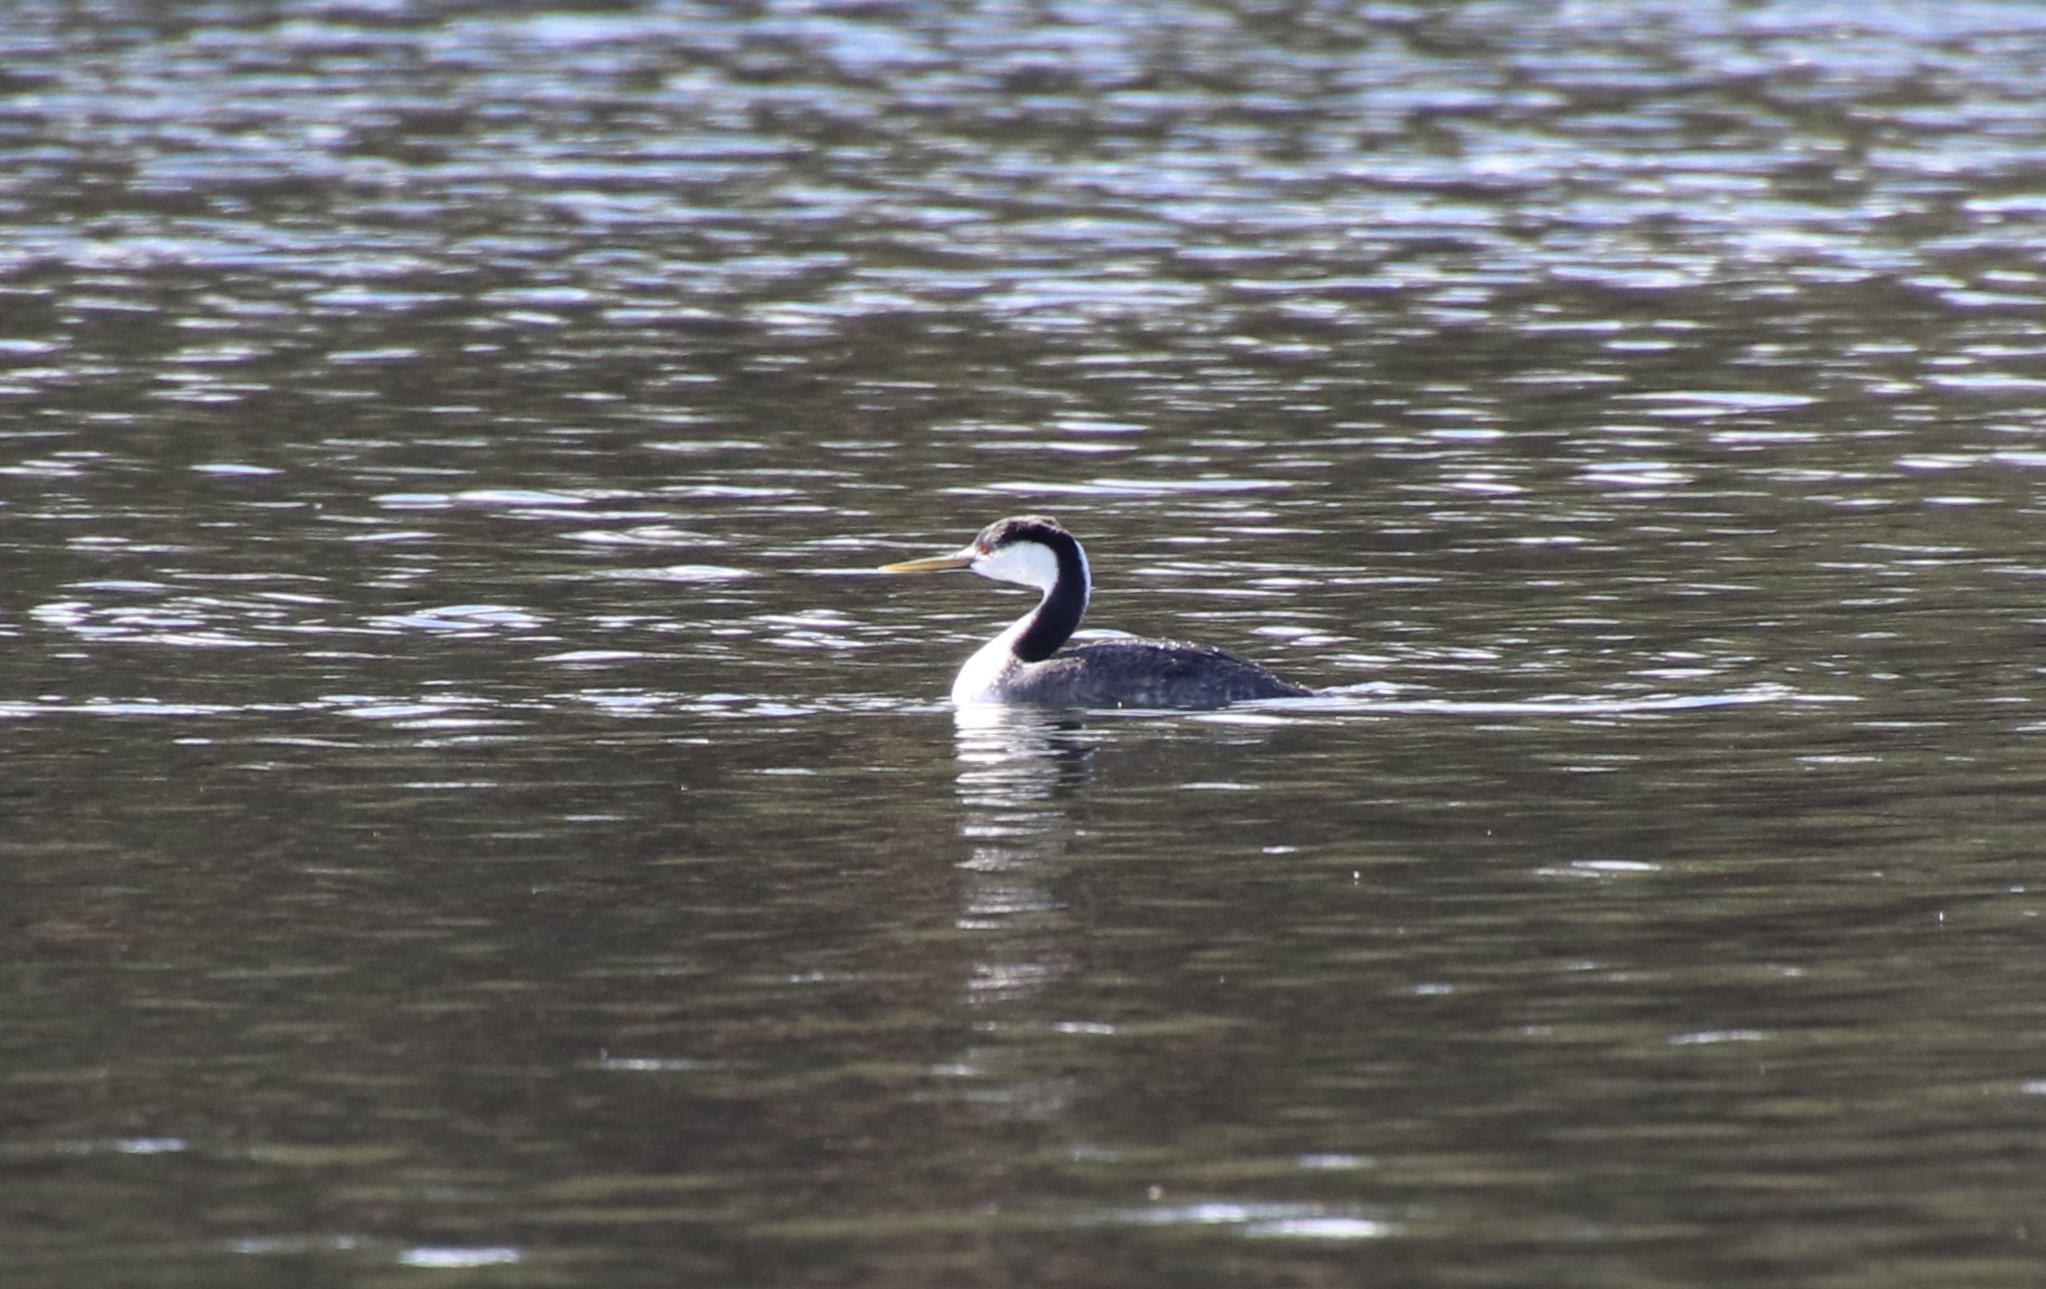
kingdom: Animalia
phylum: Chordata
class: Aves
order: Podicipediformes
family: Podicipedidae
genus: Aechmophorus
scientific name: Aechmophorus clarkii
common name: Clark's grebe
